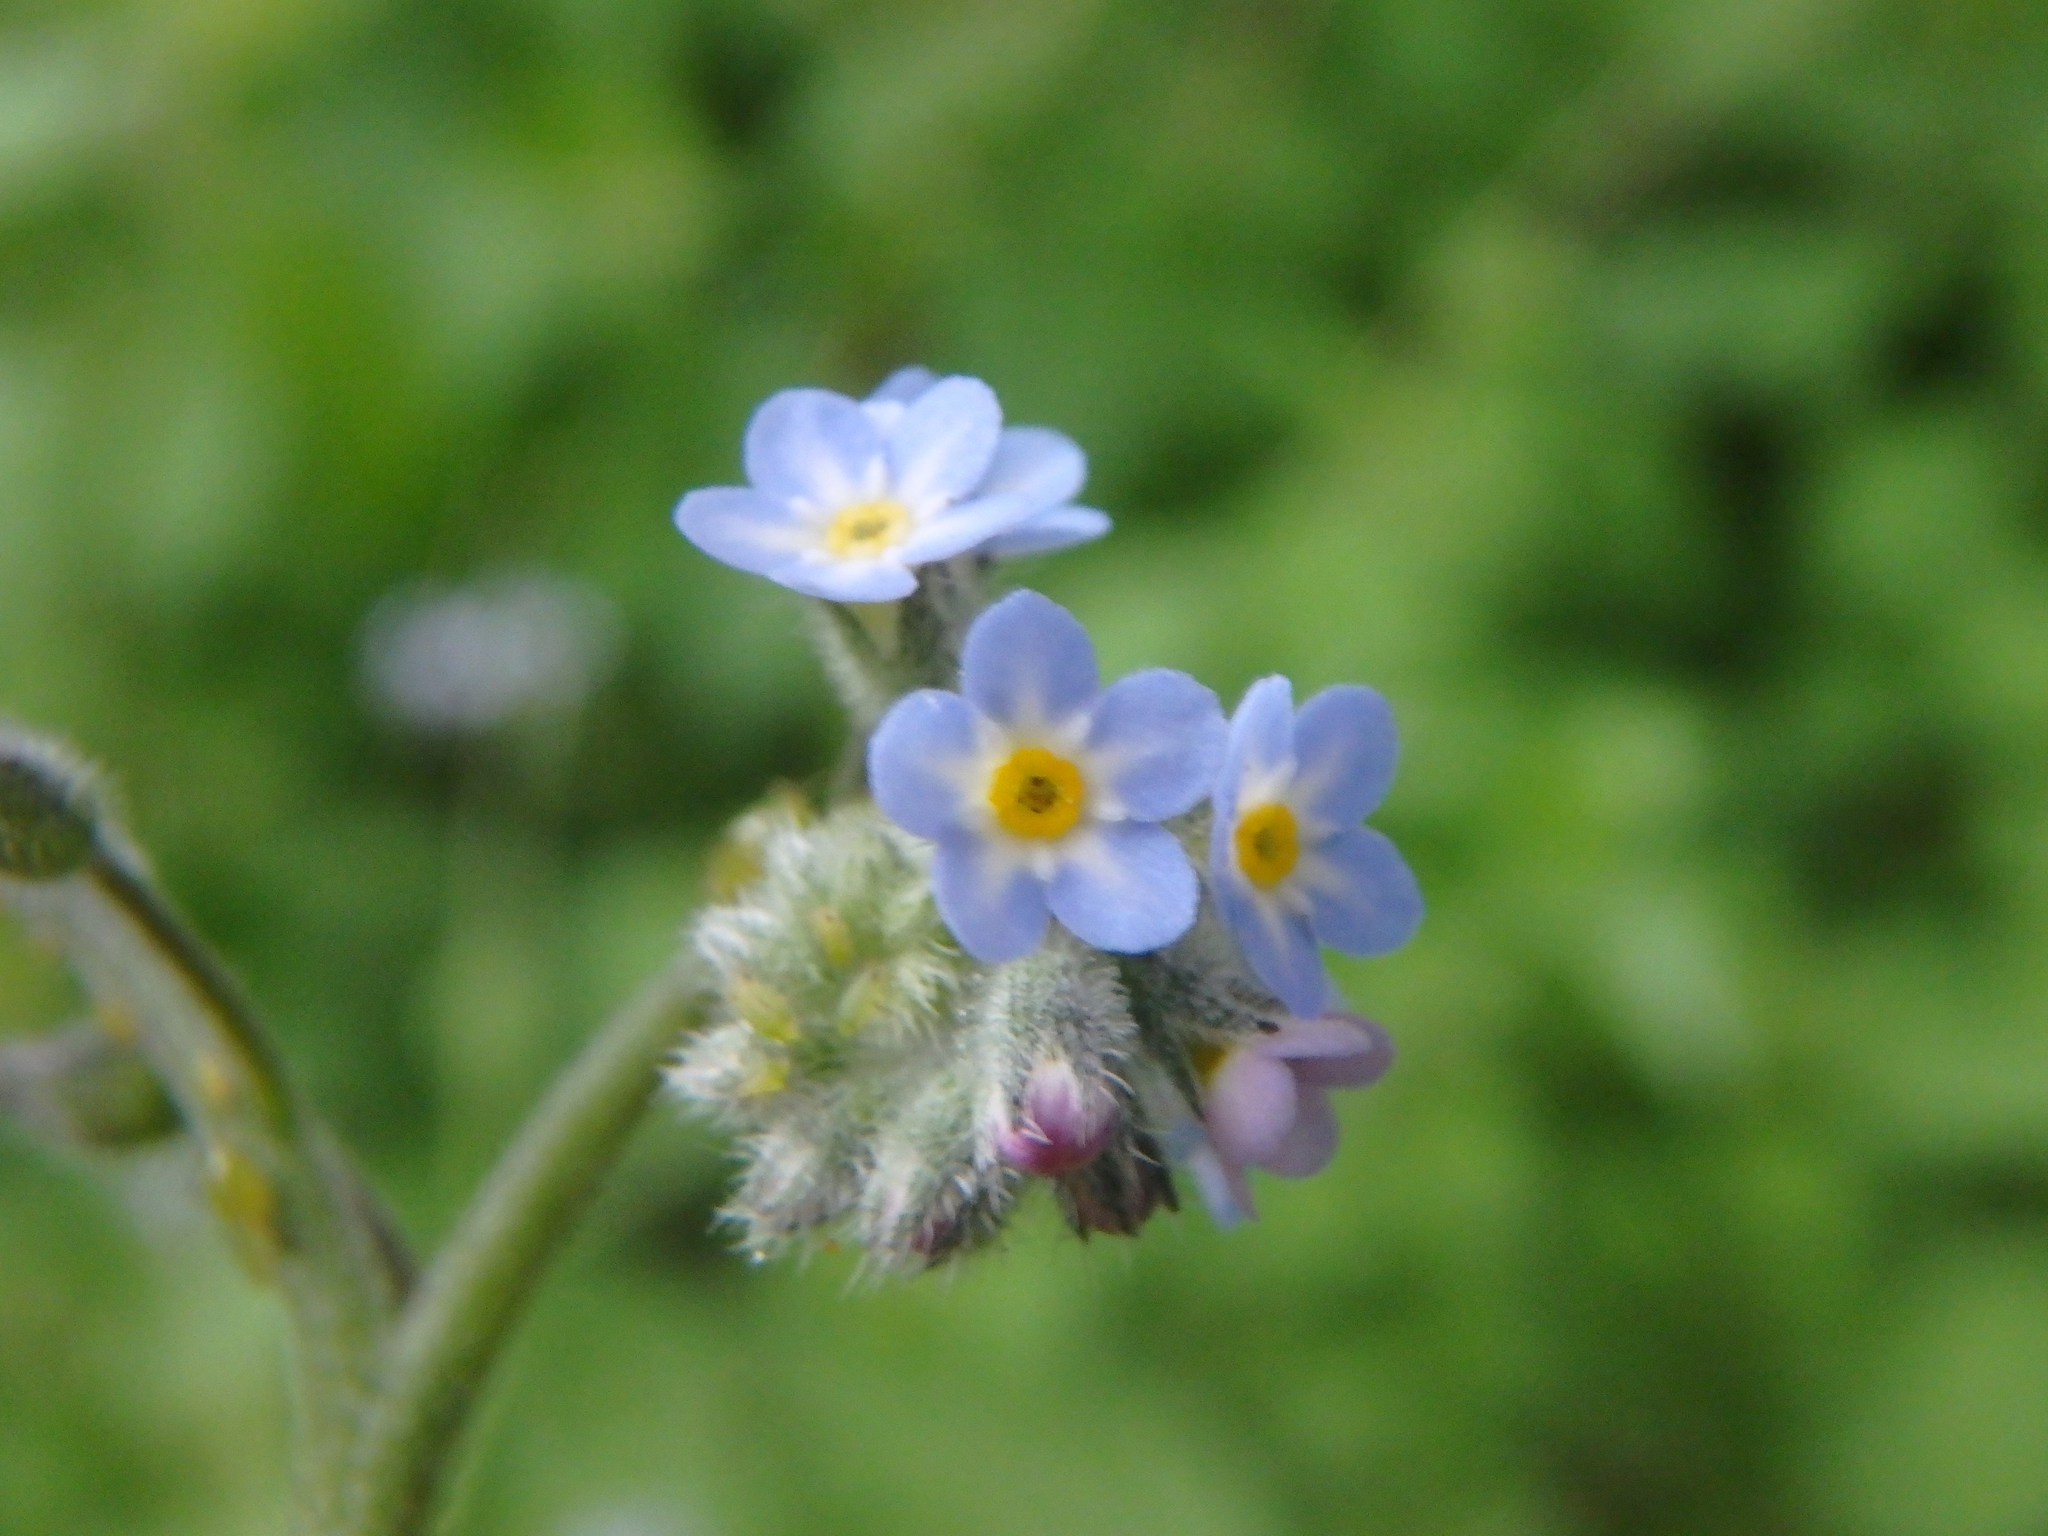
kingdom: Plantae
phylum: Tracheophyta
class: Magnoliopsida
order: Boraginales
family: Boraginaceae
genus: Myosotis
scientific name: Myosotis arvensis
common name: Field forget-me-not
